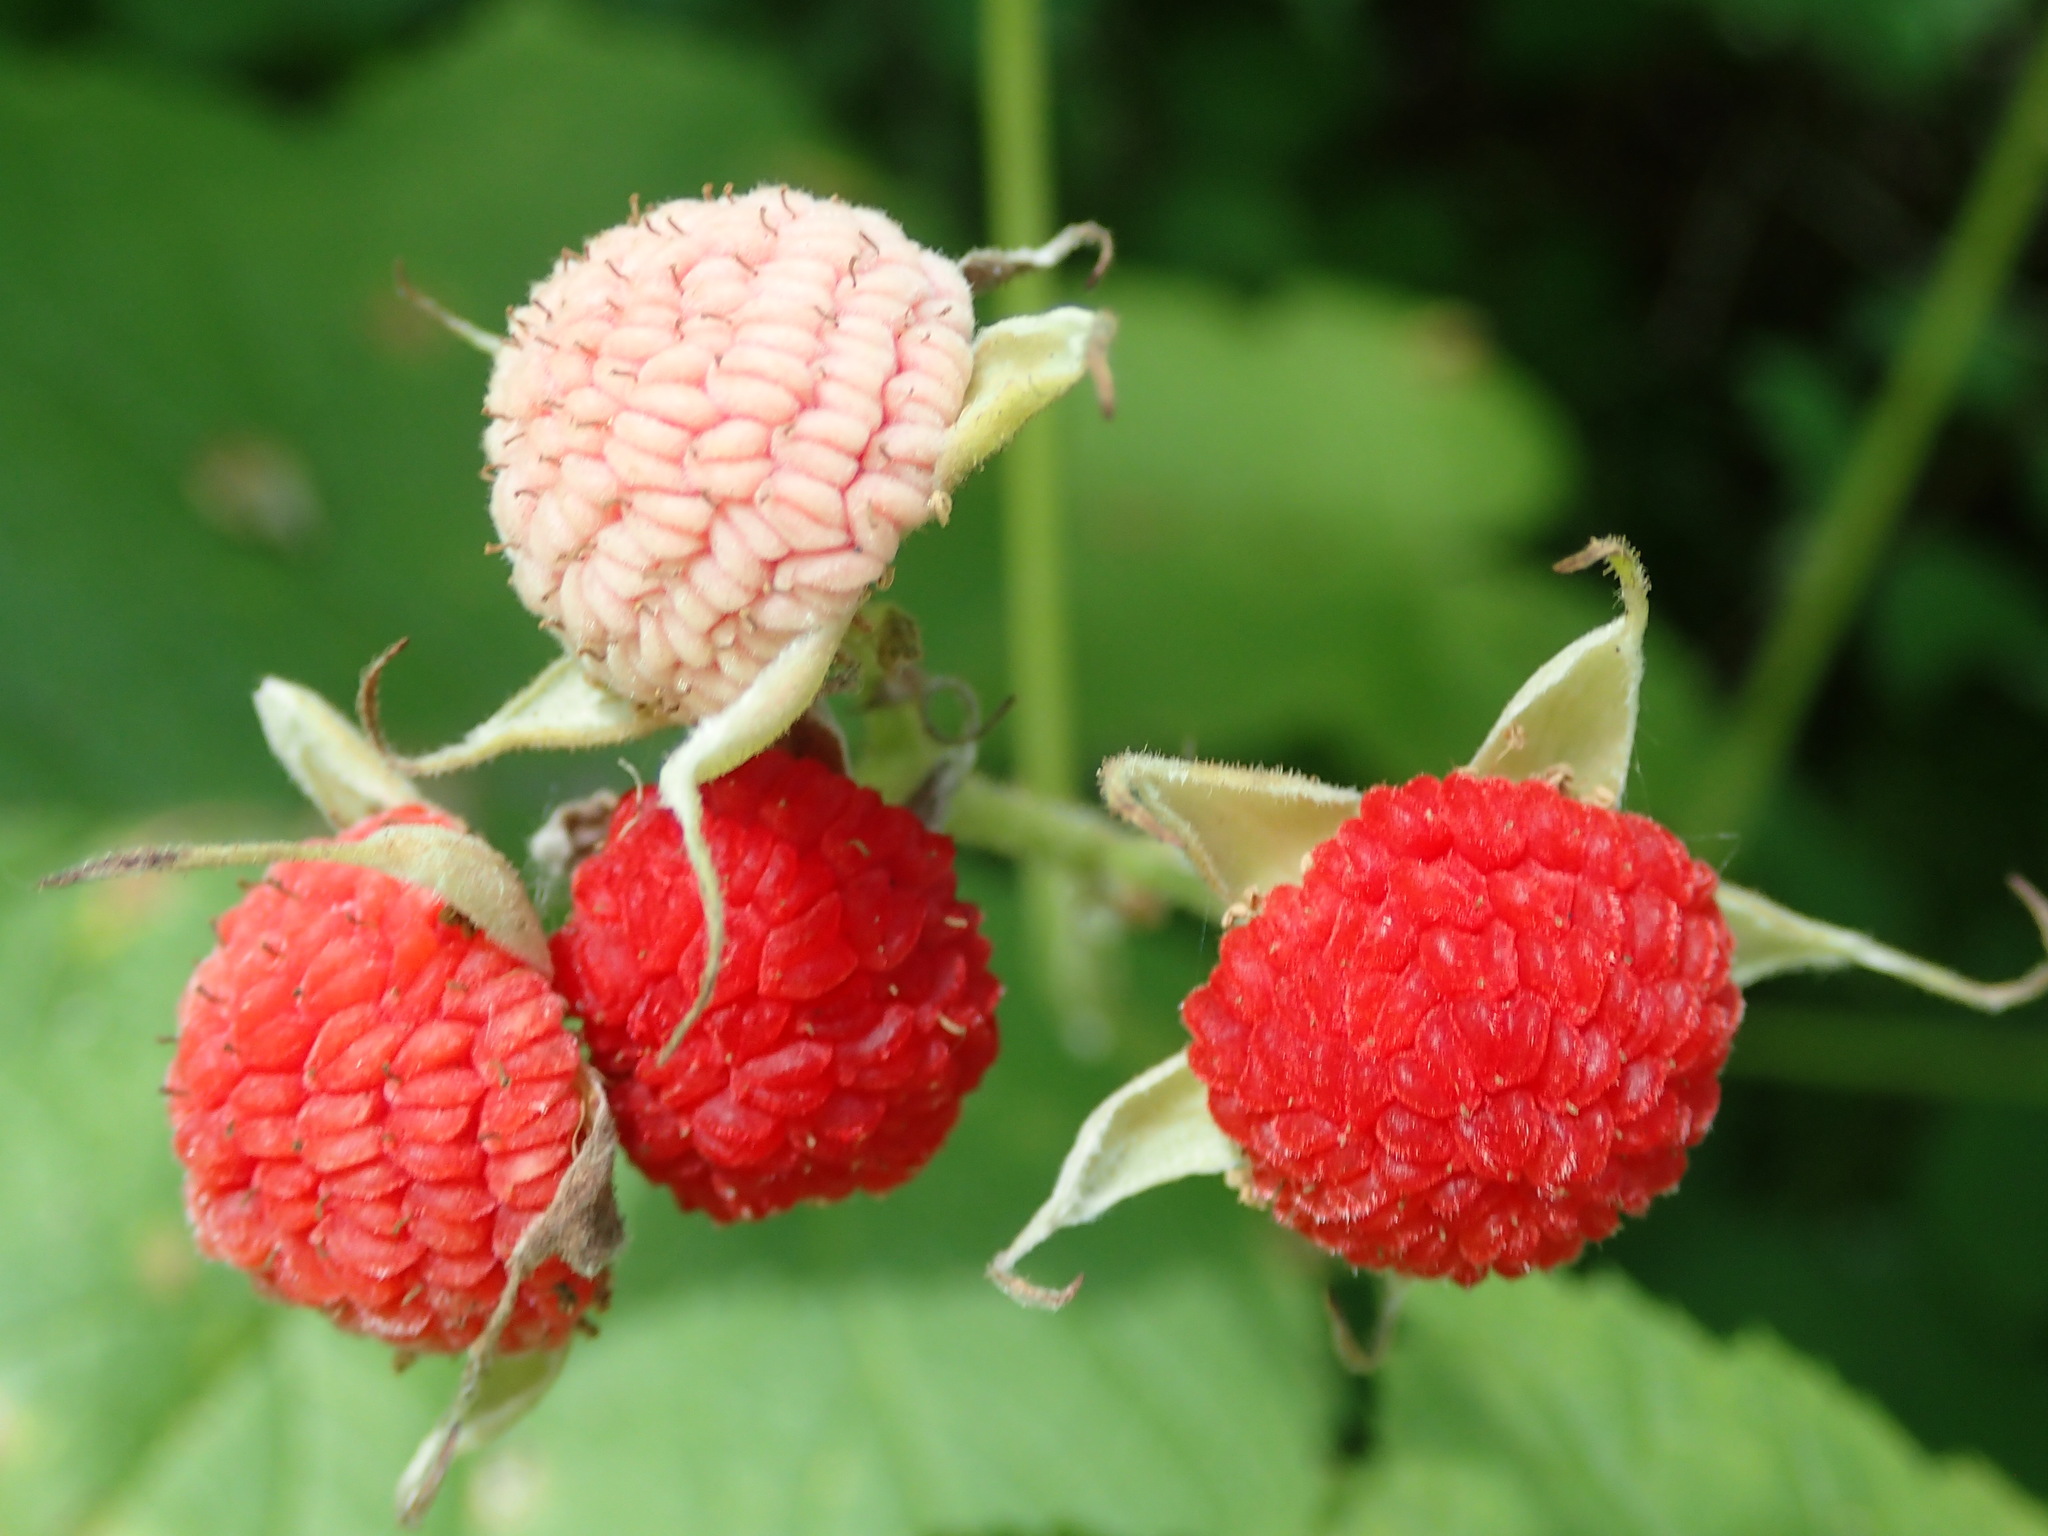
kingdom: Plantae
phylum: Tracheophyta
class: Magnoliopsida
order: Rosales
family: Rosaceae
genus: Rubus
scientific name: Rubus parviflorus
